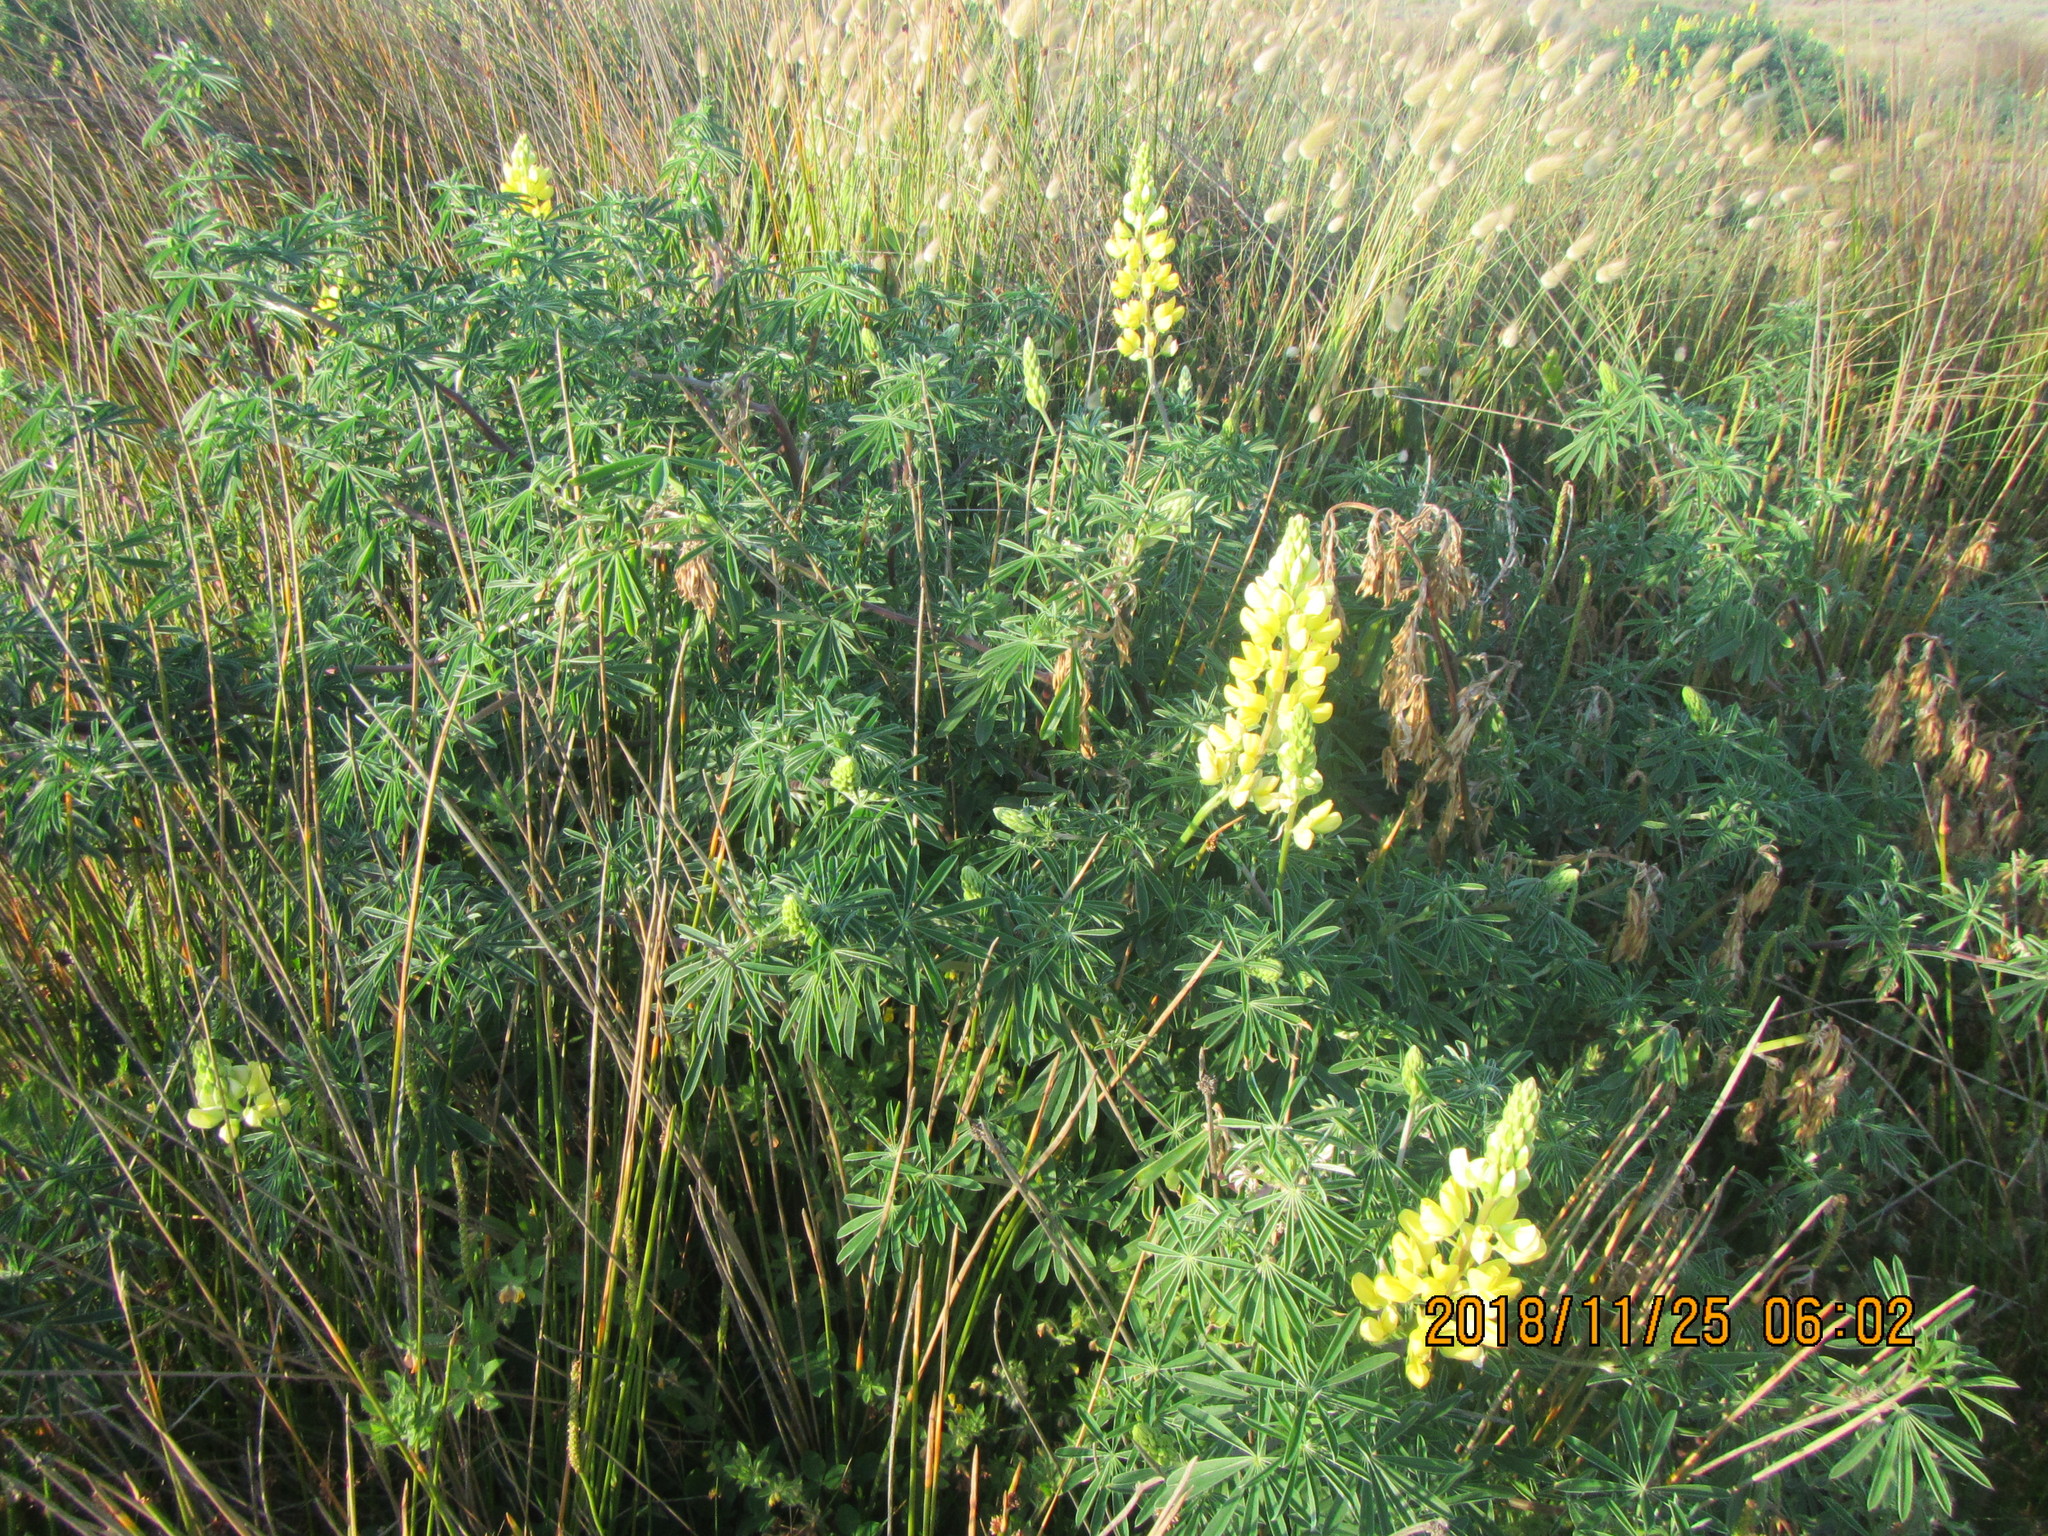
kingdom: Plantae
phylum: Tracheophyta
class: Magnoliopsida
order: Fabales
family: Fabaceae
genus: Lupinus
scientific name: Lupinus arboreus
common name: Yellow bush lupine
